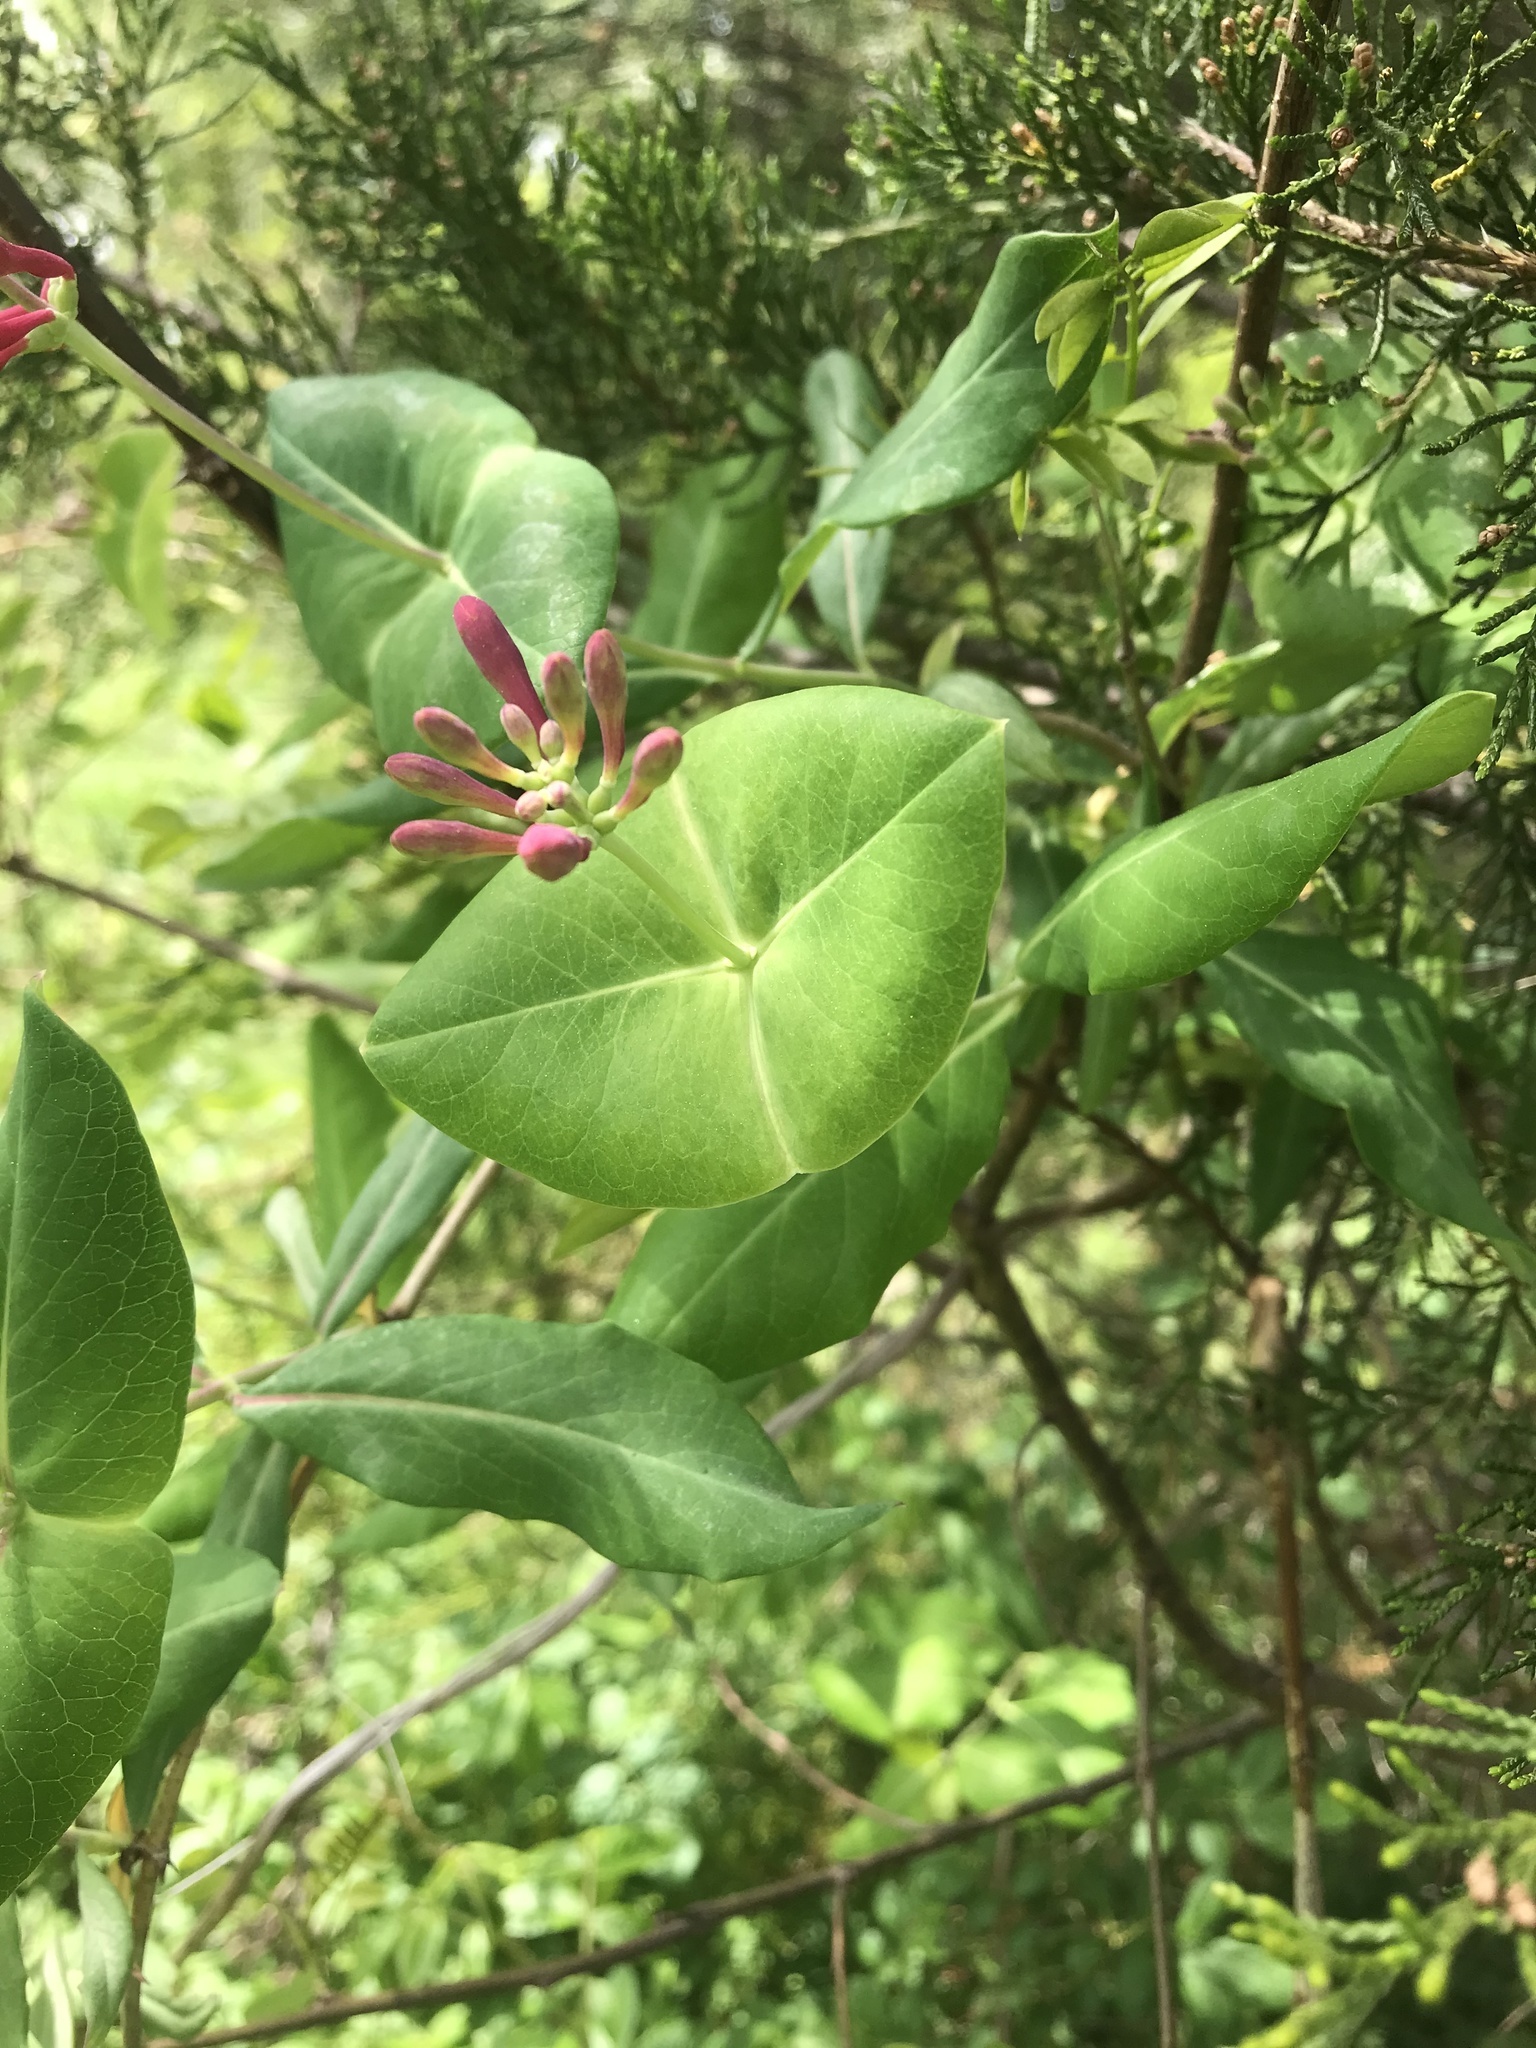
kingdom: Plantae
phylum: Tracheophyta
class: Magnoliopsida
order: Dipsacales
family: Caprifoliaceae
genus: Lonicera
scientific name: Lonicera sempervirens
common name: Coral honeysuckle
